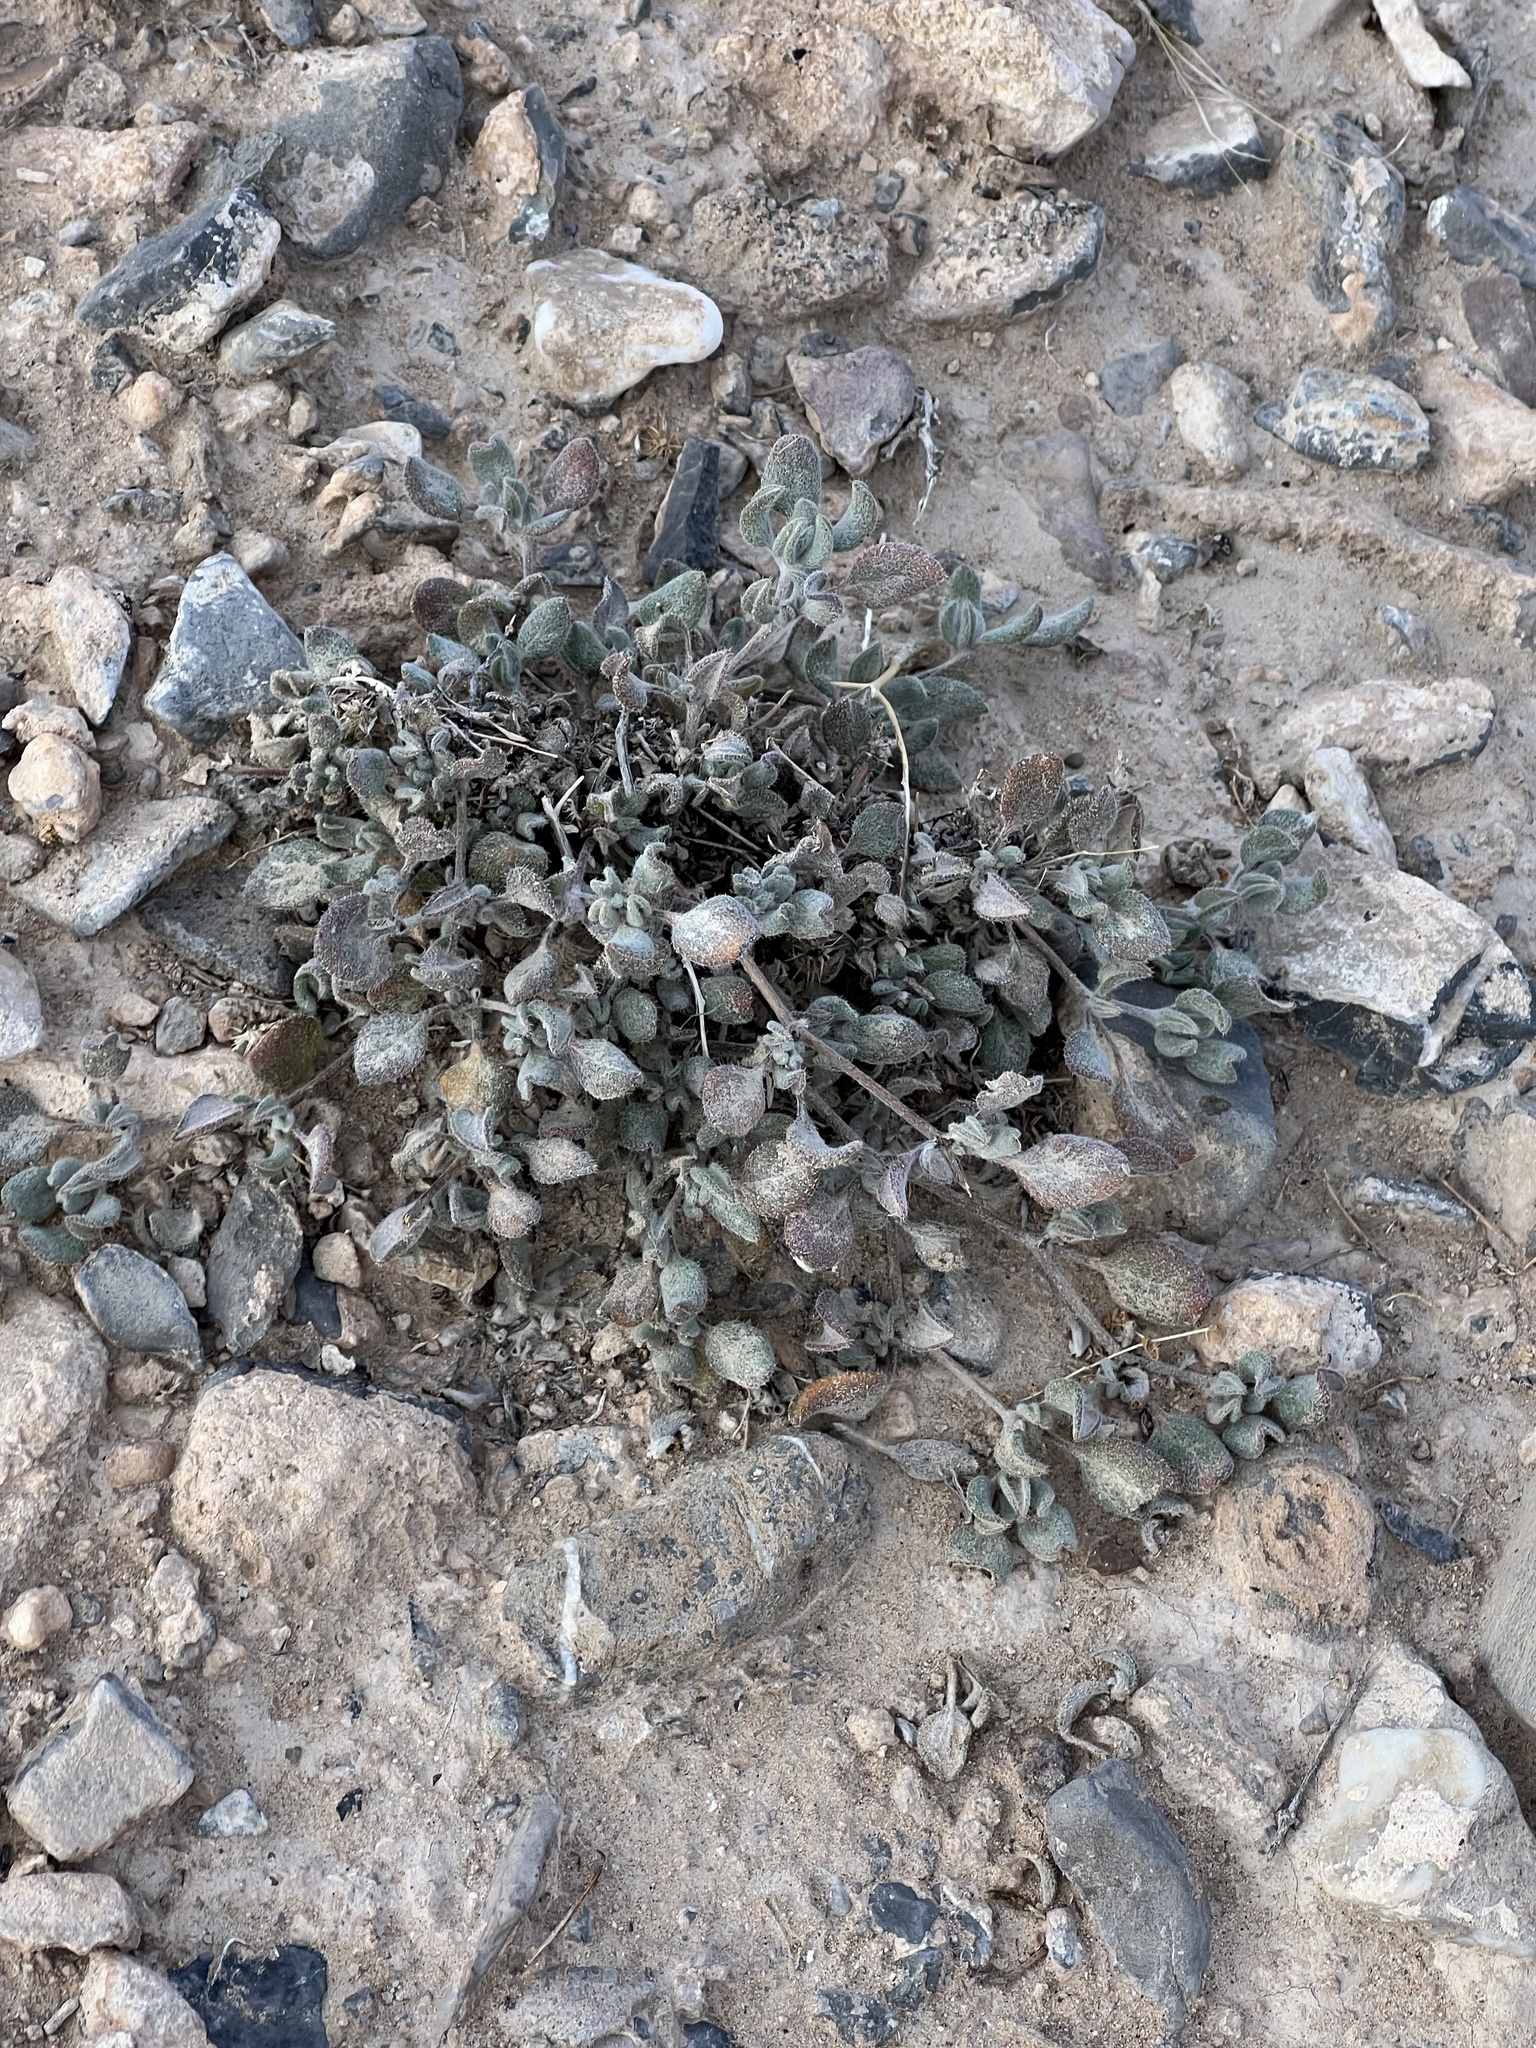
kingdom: Plantae
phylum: Tracheophyta
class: Magnoliopsida
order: Boraginales
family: Ehretiaceae
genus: Tiquilia
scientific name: Tiquilia canescens
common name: Hairy tiquilia
